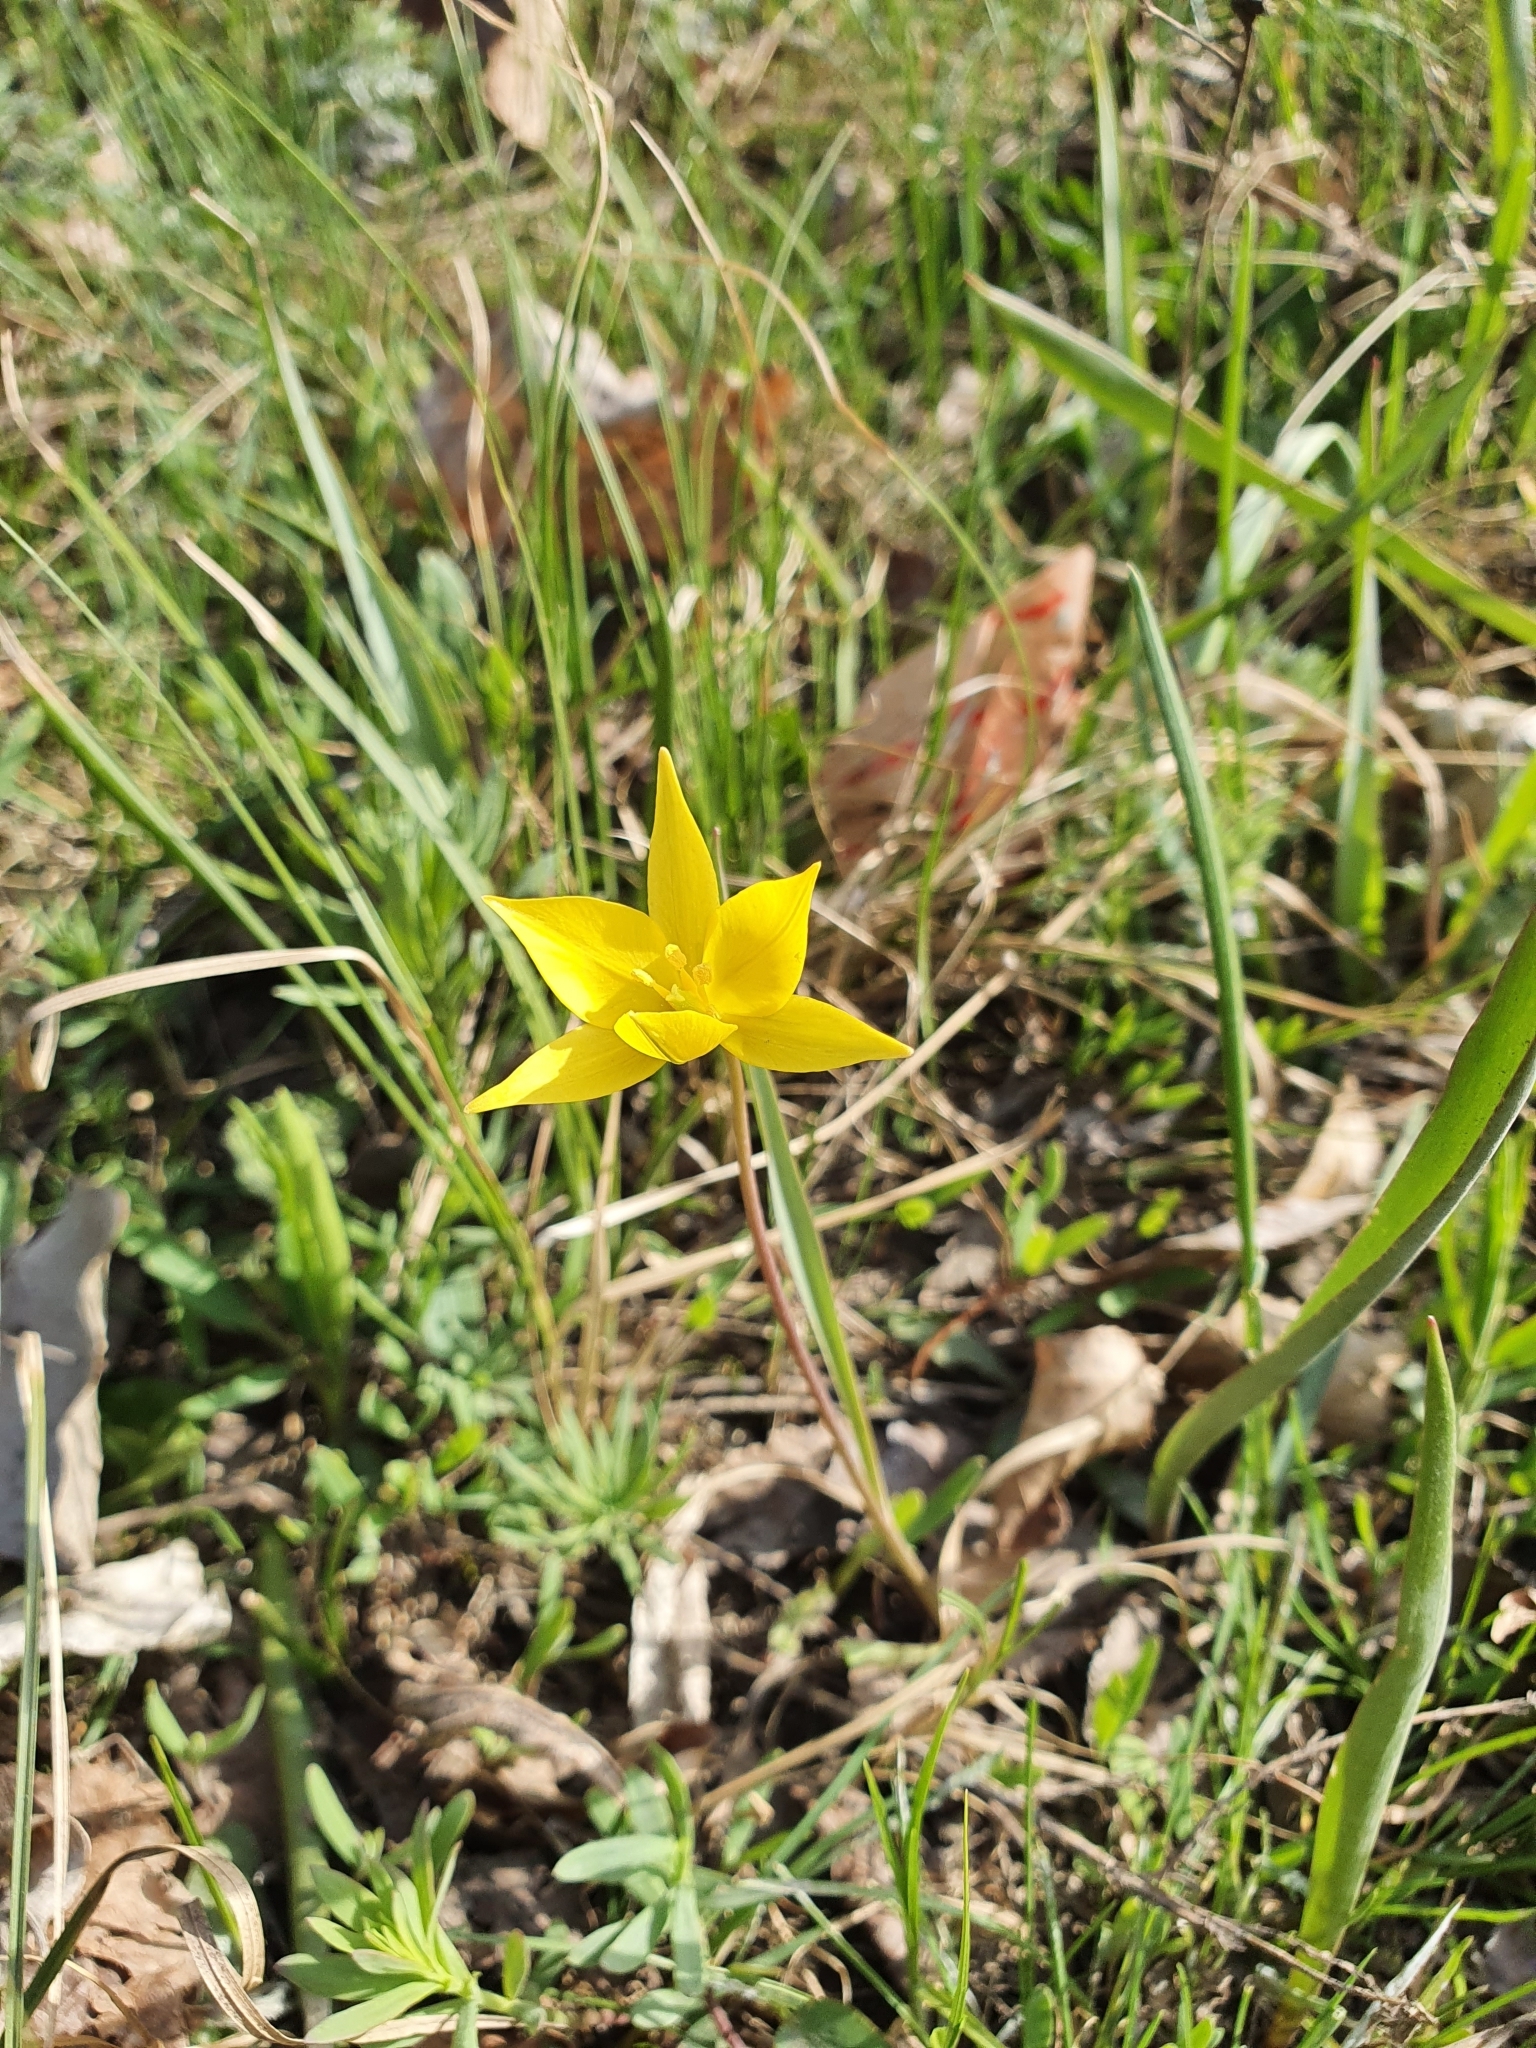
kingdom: Plantae
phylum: Tracheophyta
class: Liliopsida
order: Liliales
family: Liliaceae
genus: Tulipa
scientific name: Tulipa sylvestris
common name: Wild tulip
